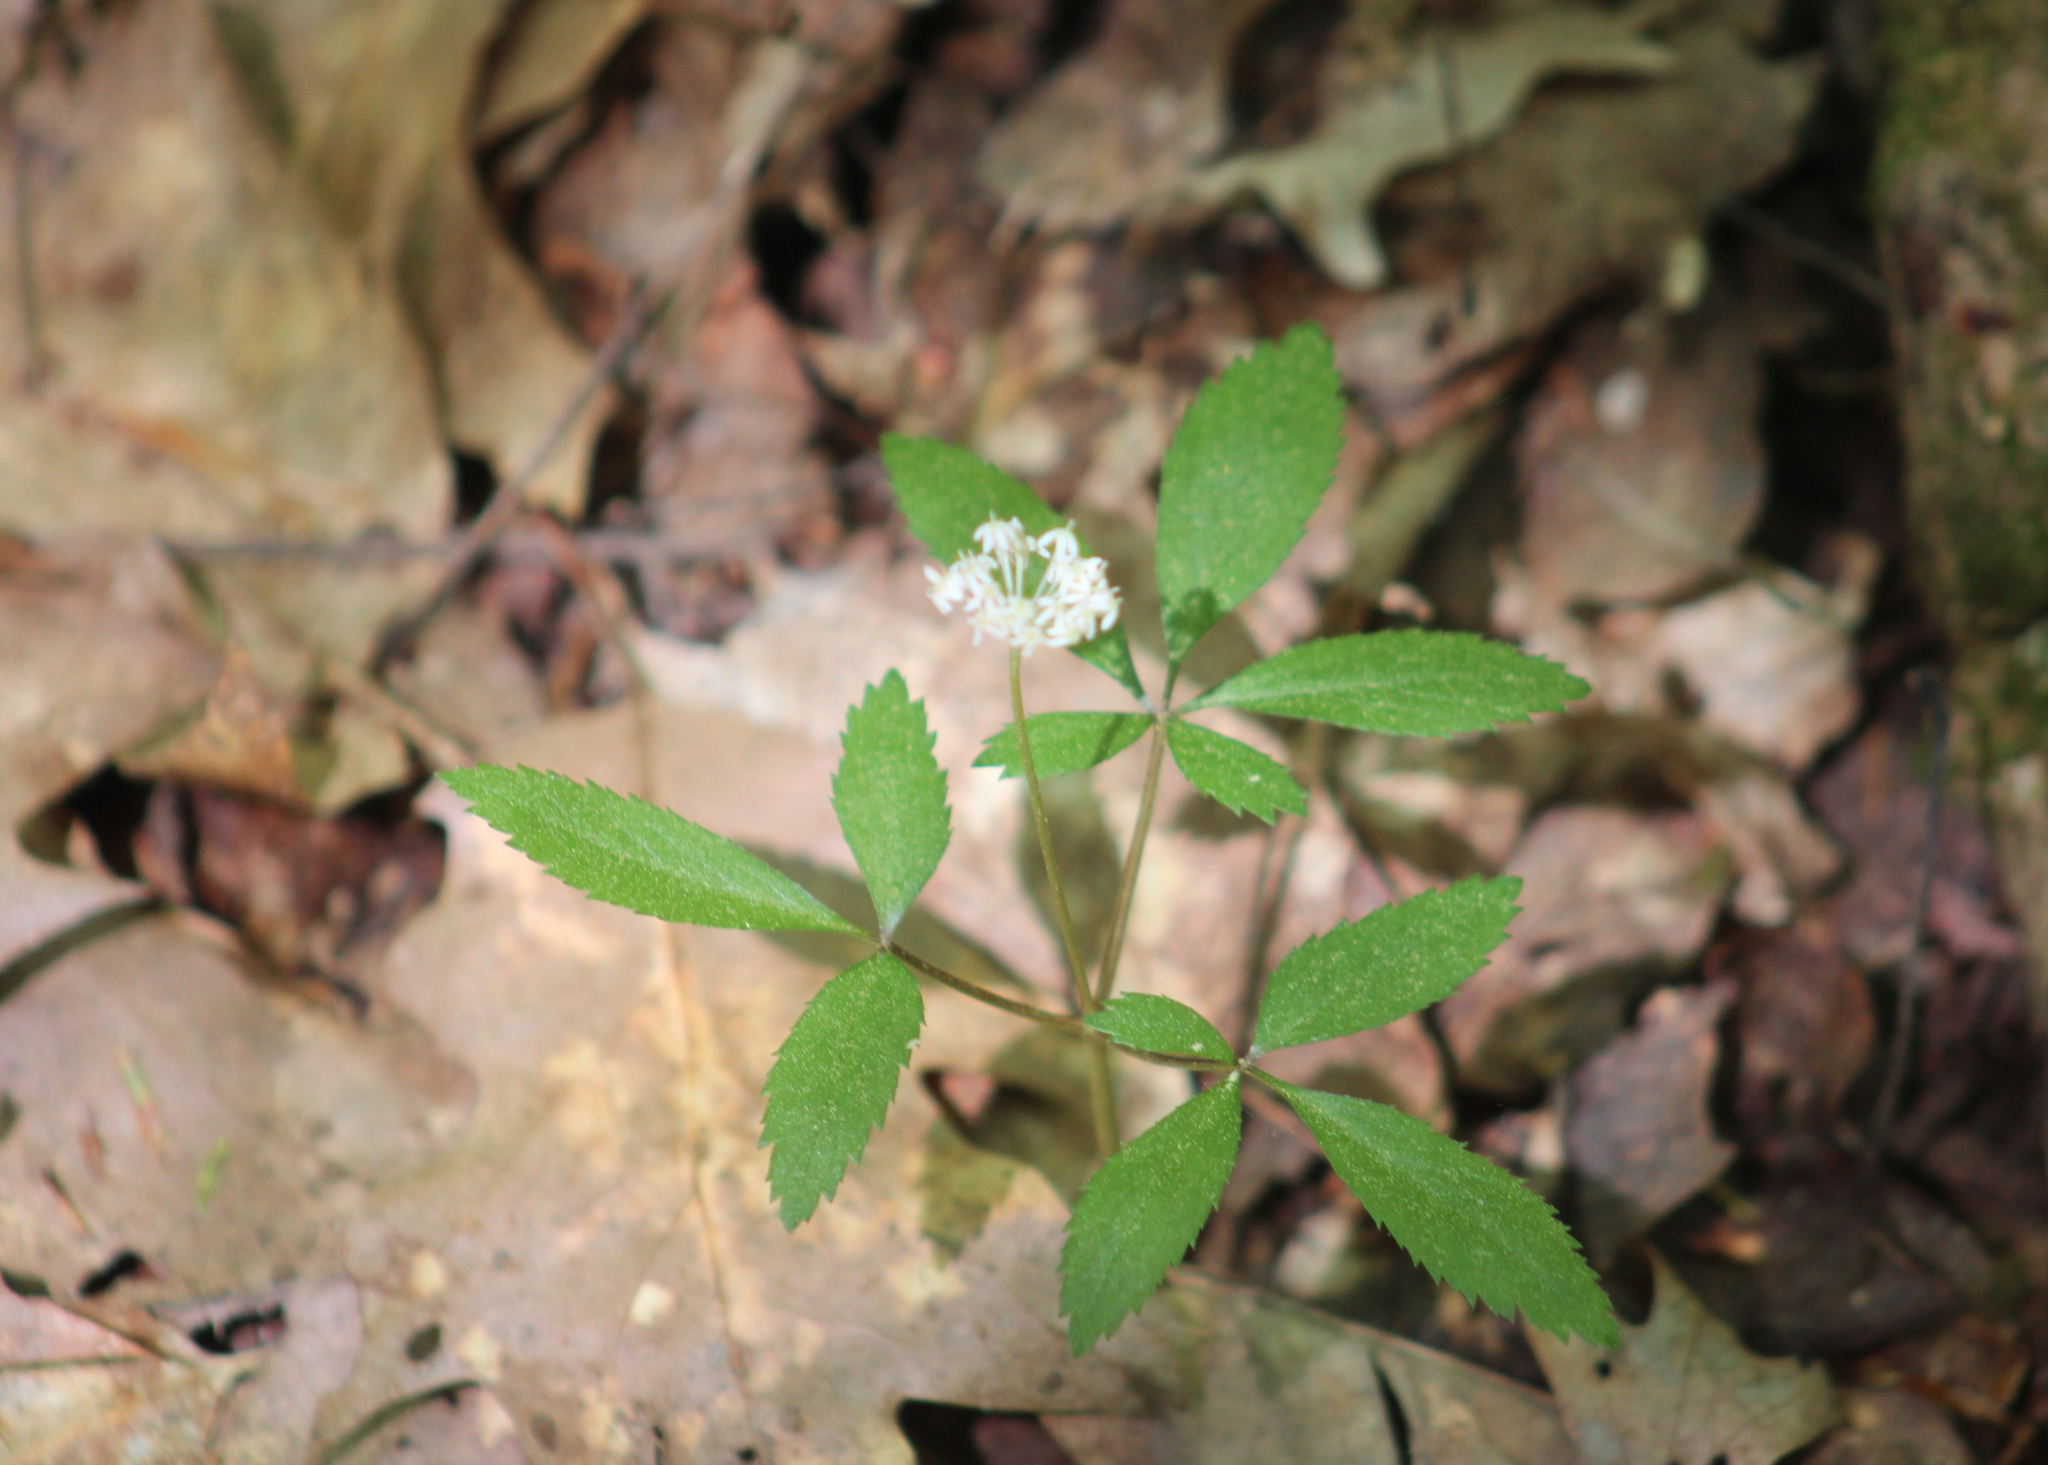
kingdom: Plantae
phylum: Tracheophyta
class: Magnoliopsida
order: Apiales
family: Araliaceae
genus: Panax
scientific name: Panax trifolius
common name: Dwarf ginseng
